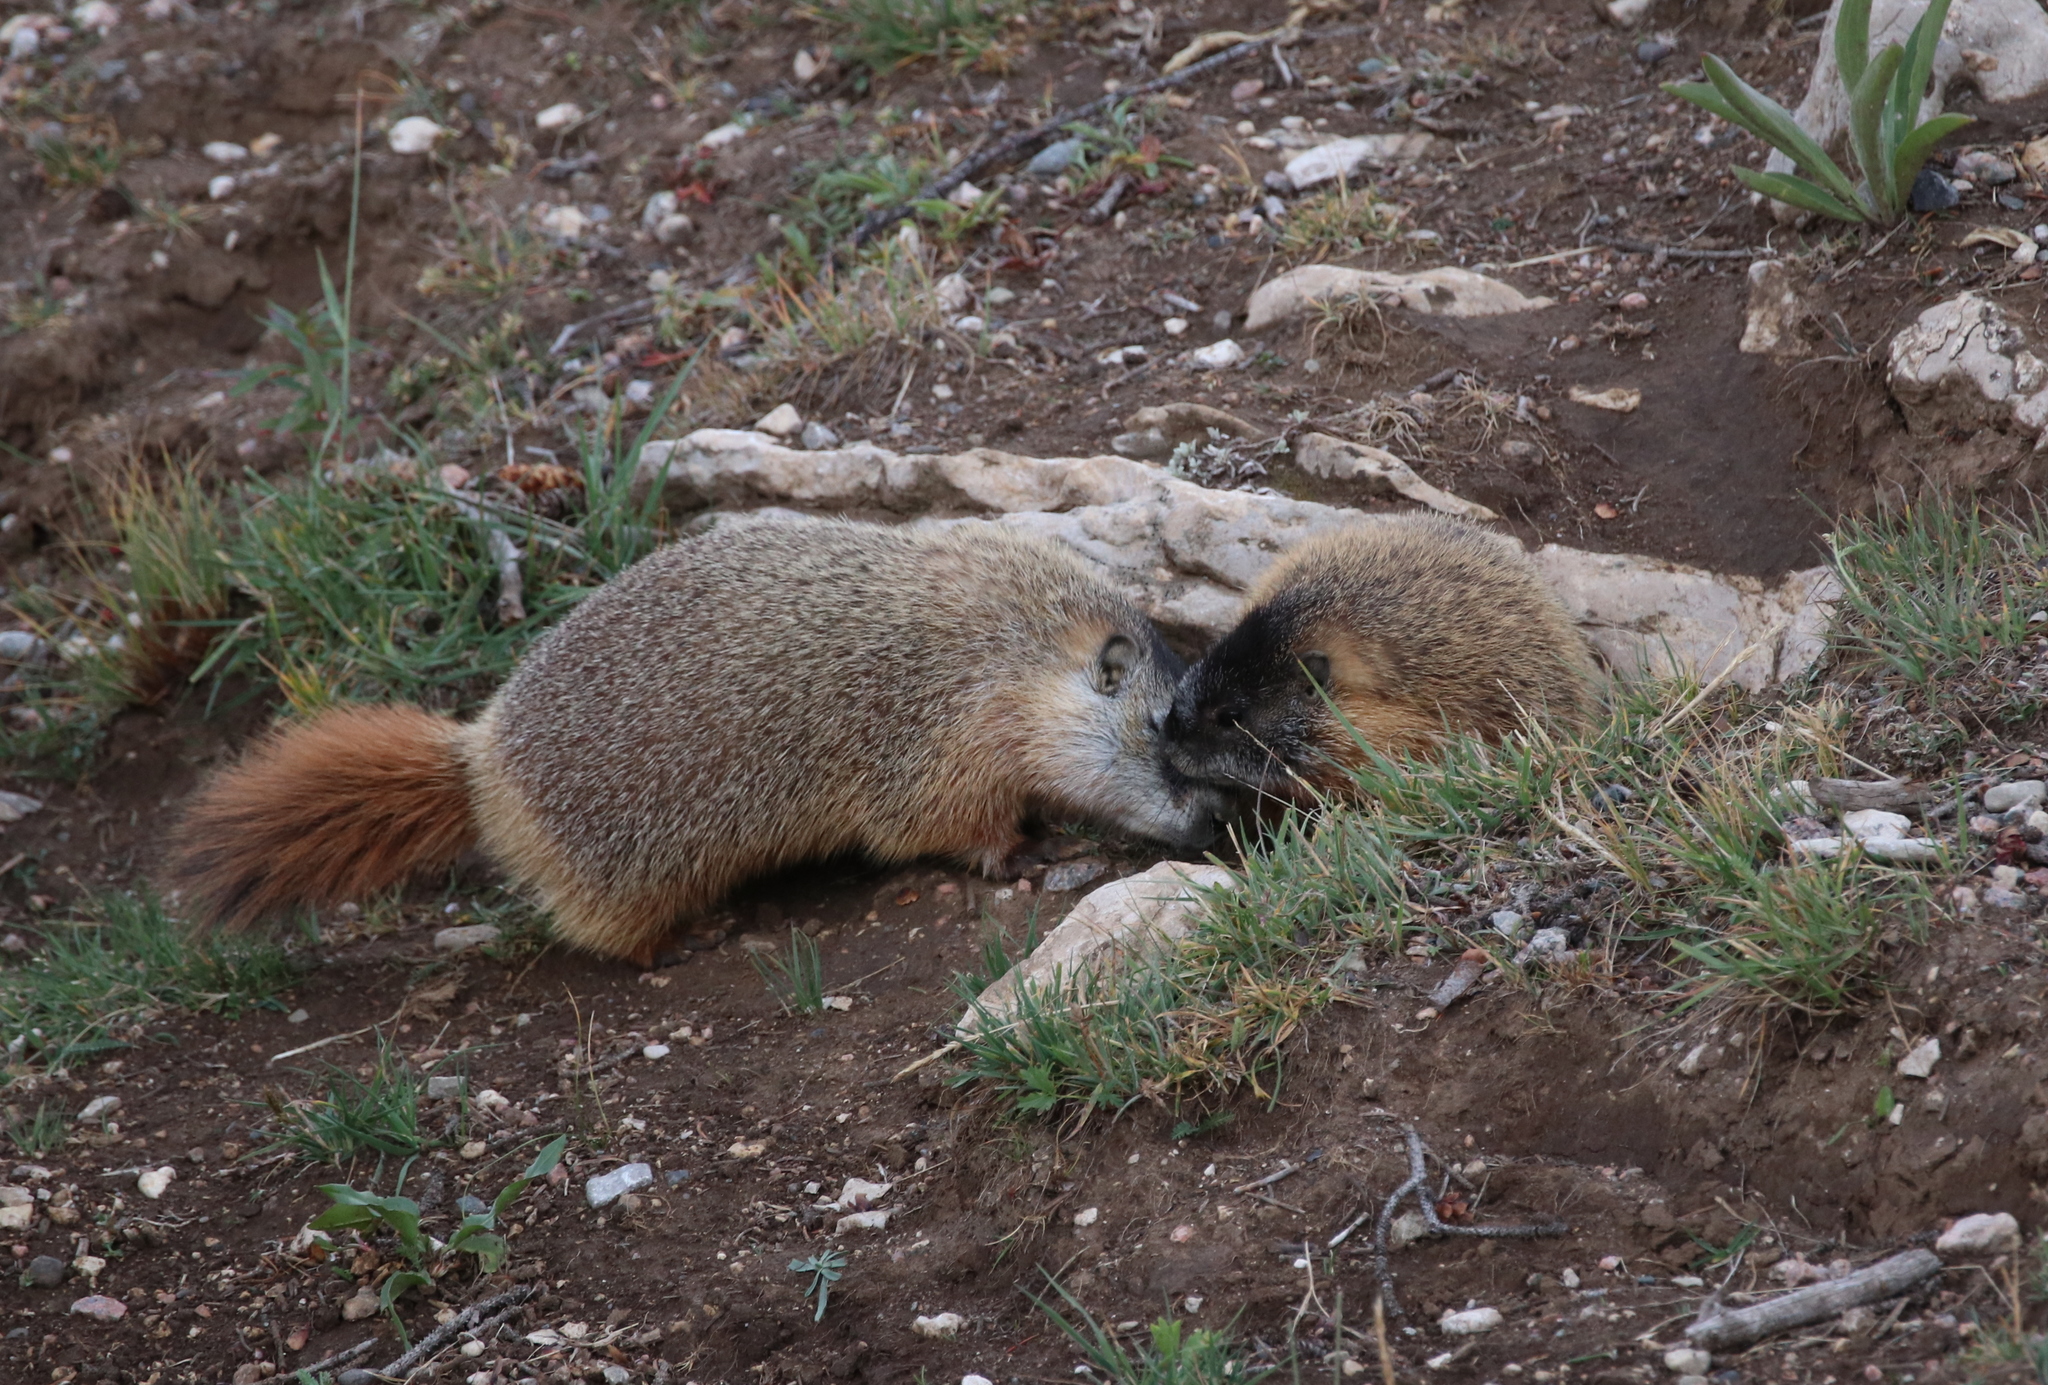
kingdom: Animalia
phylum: Chordata
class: Mammalia
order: Rodentia
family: Sciuridae
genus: Marmota
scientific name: Marmota flaviventris
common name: Yellow-bellied marmot
